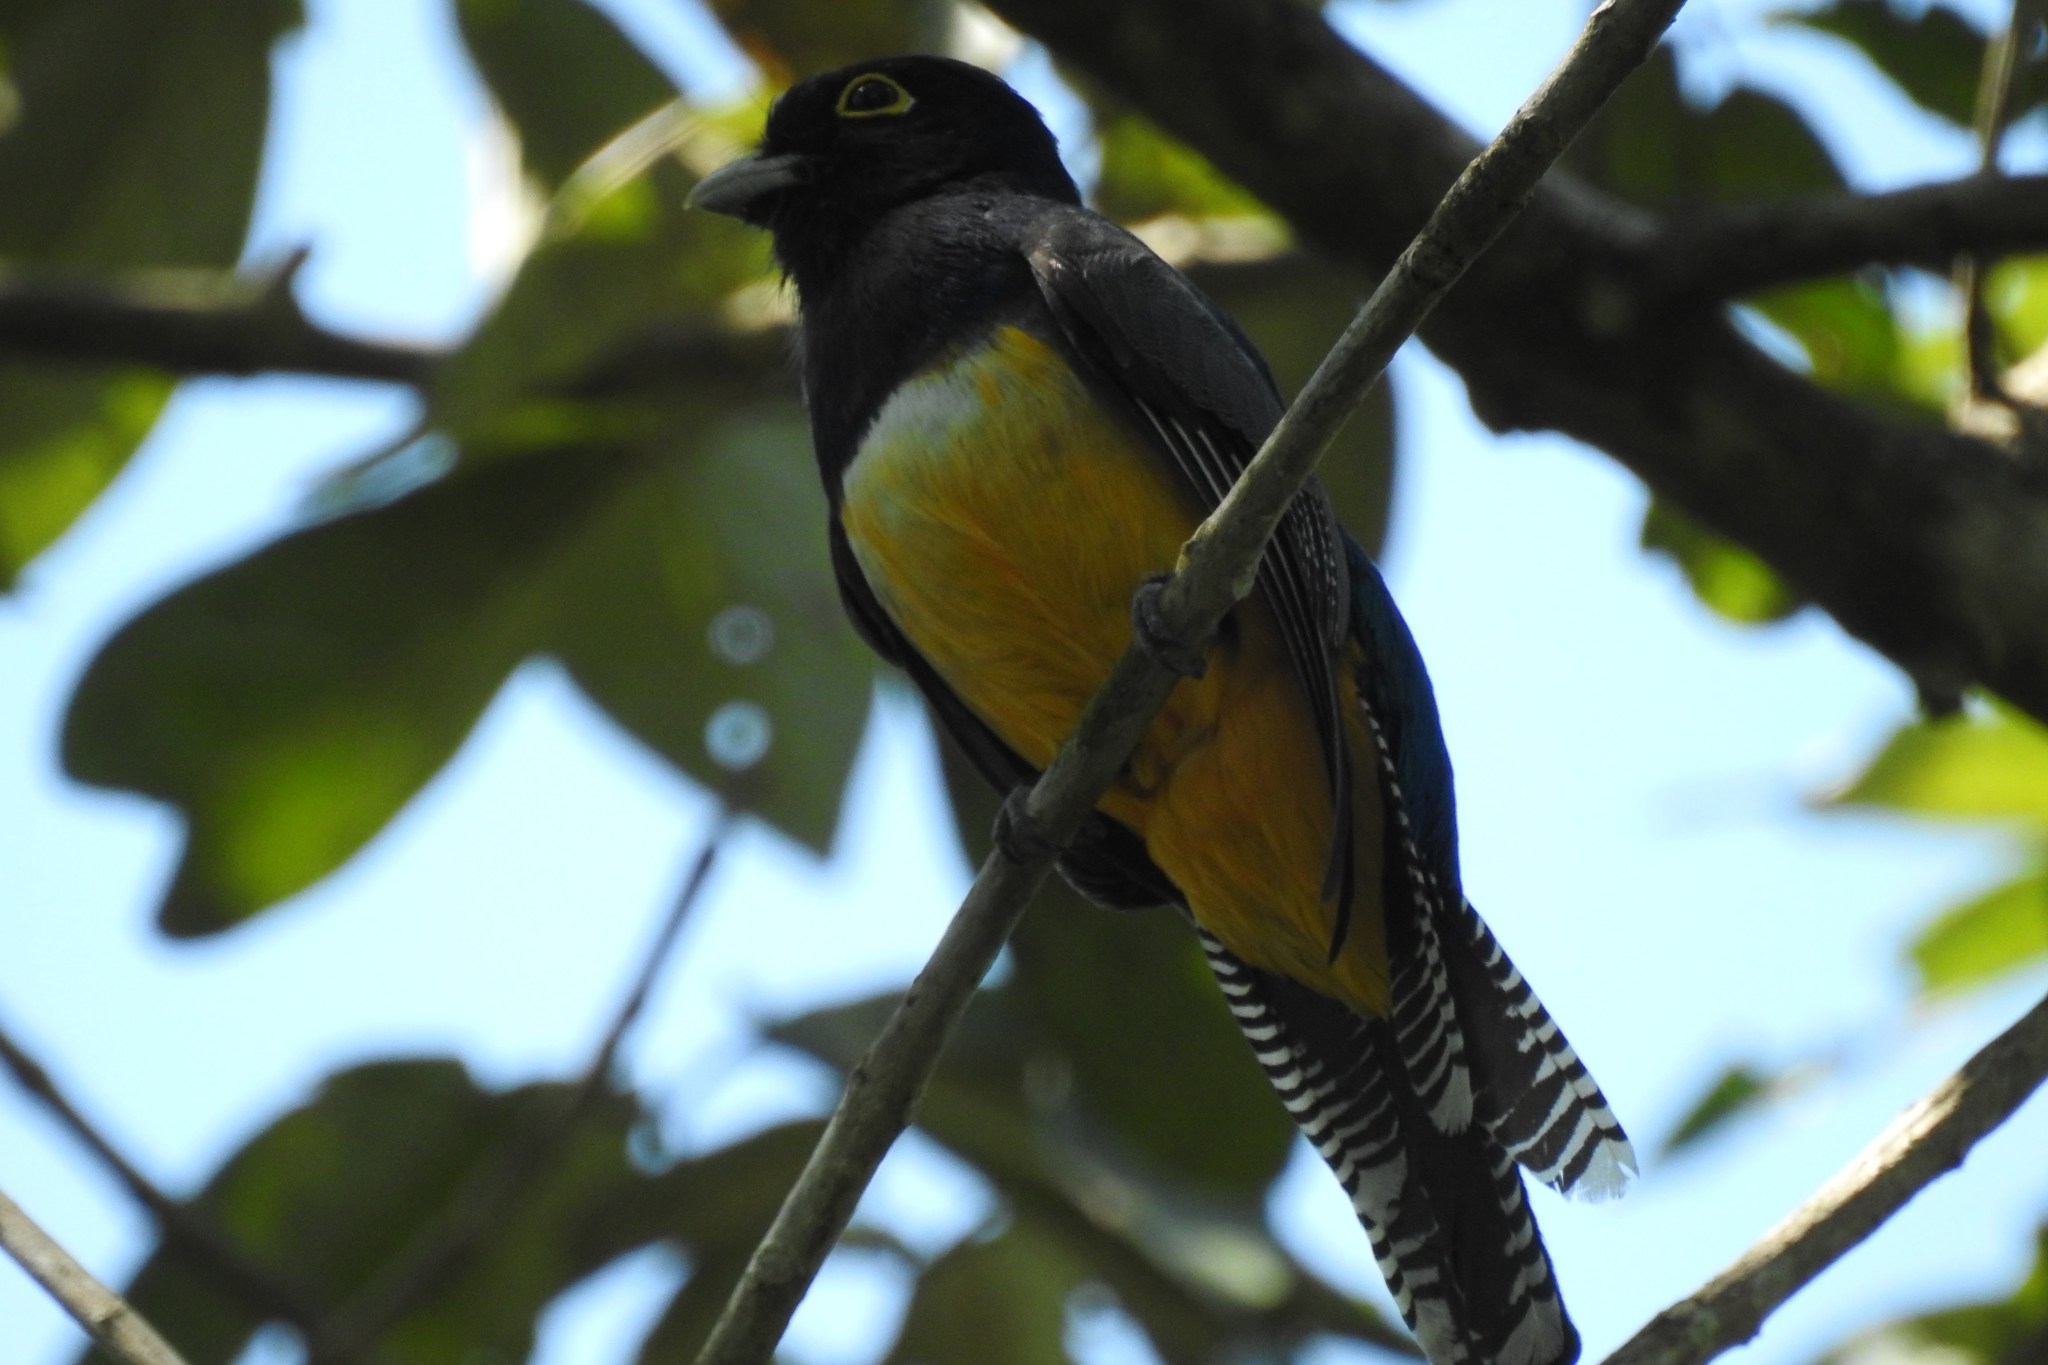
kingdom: Animalia
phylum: Chordata
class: Aves
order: Trogoniformes
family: Trogonidae
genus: Trogon
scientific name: Trogon caligatus
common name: Gartered trogon
